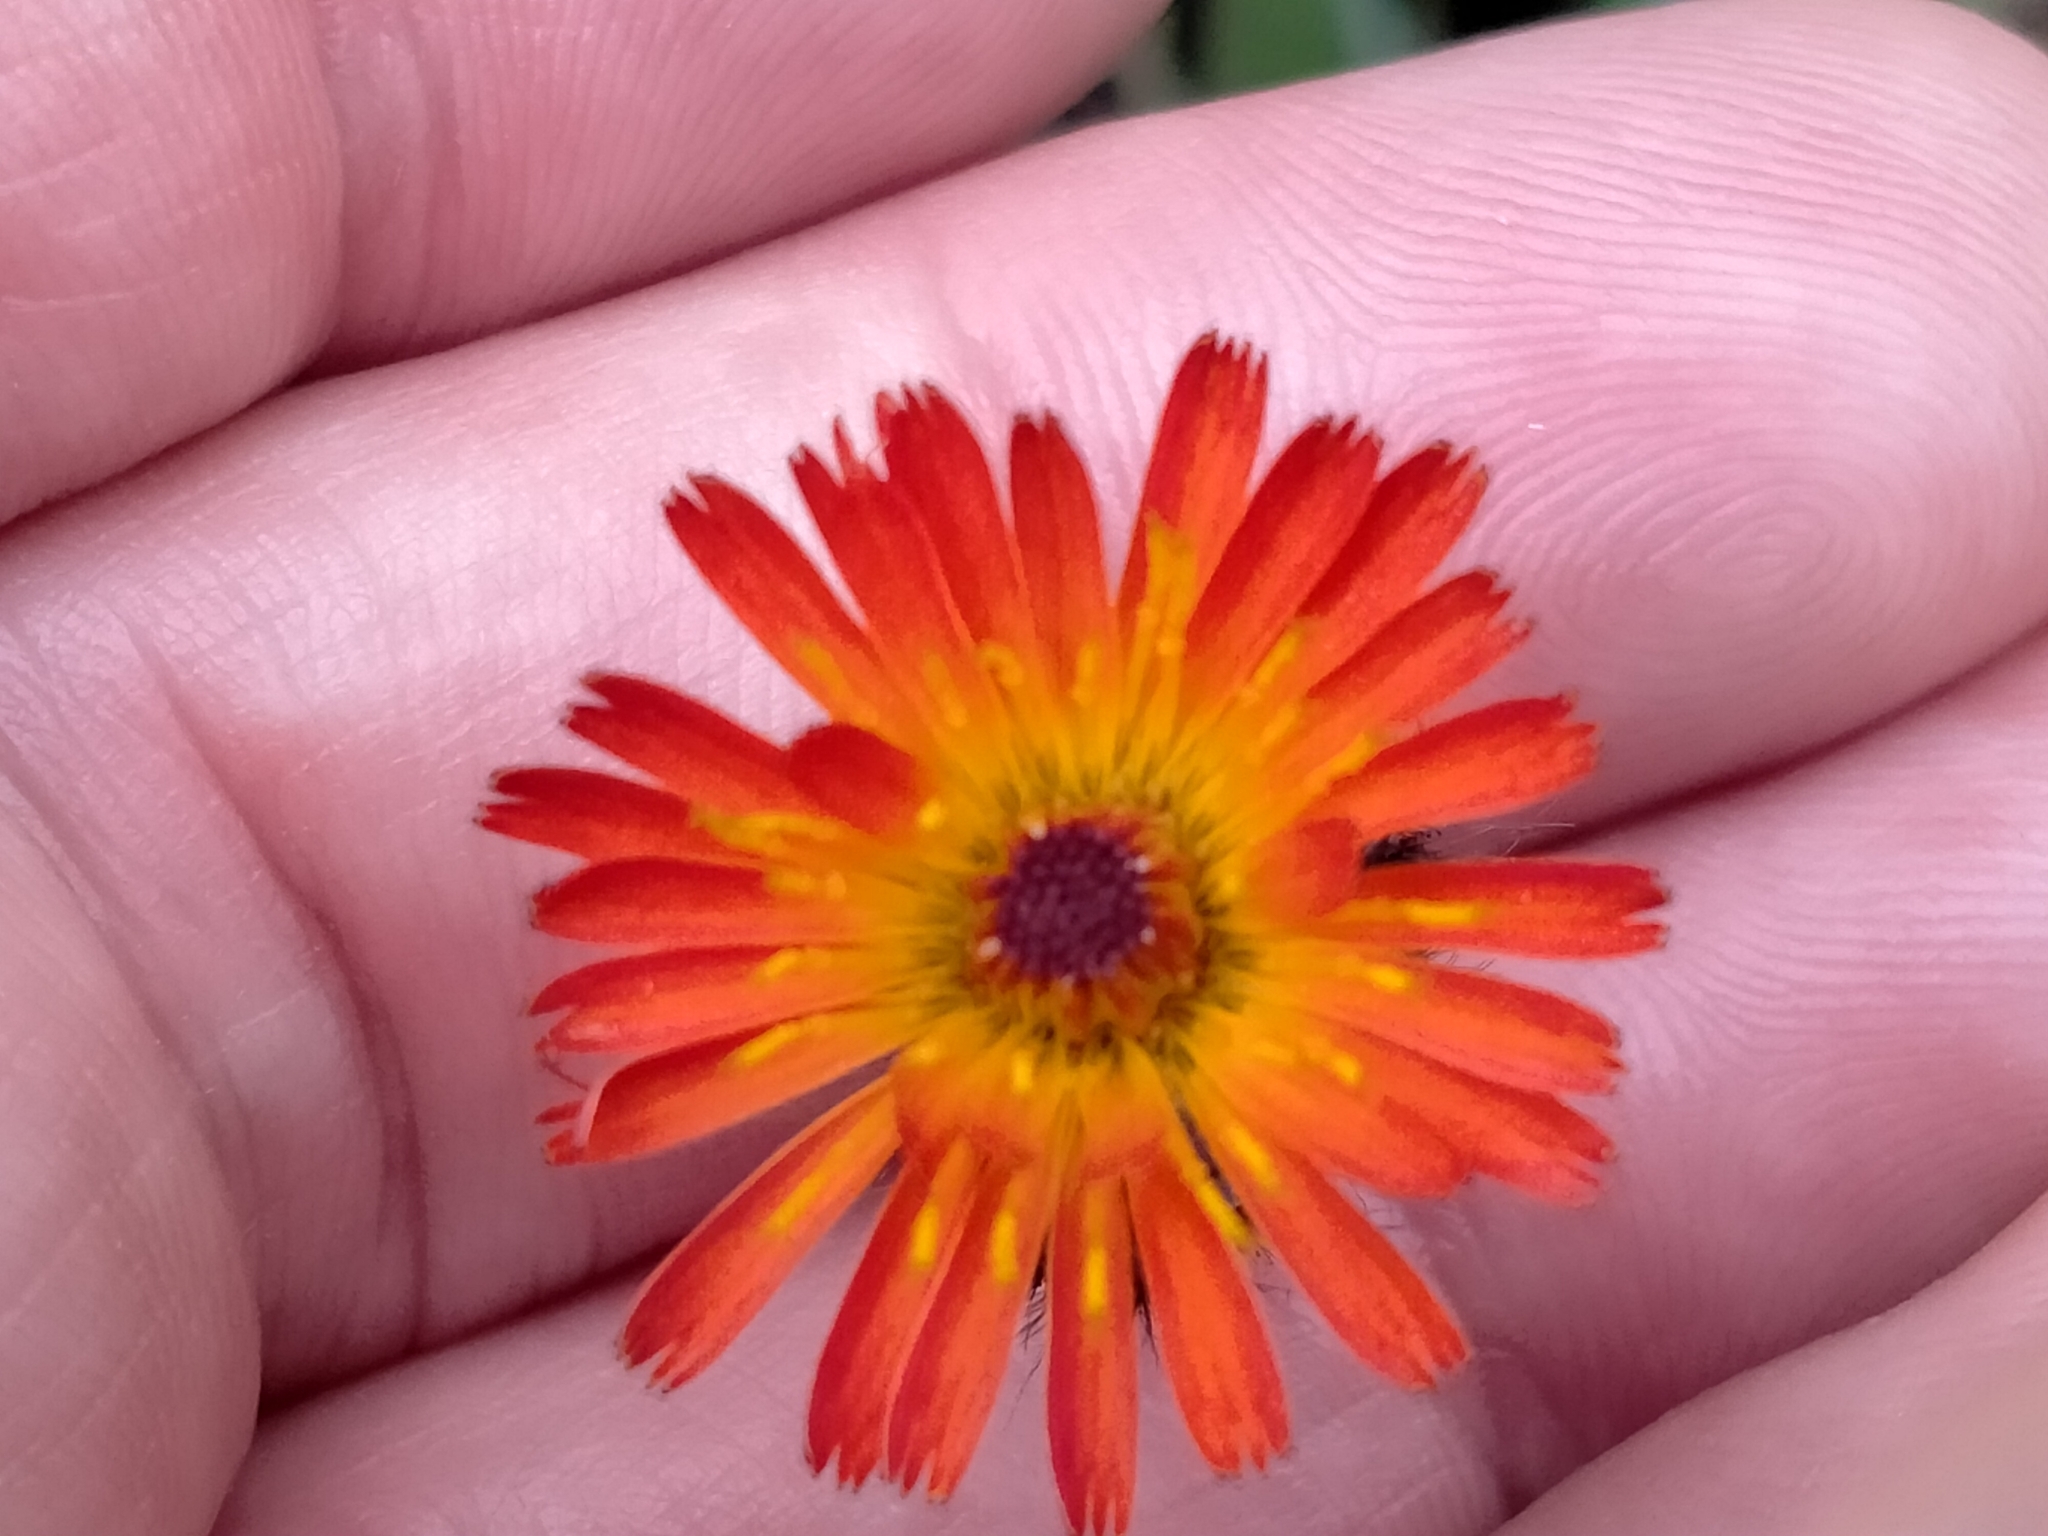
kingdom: Plantae
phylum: Tracheophyta
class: Magnoliopsida
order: Asterales
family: Asteraceae
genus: Pilosella
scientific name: Pilosella aurantiaca
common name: Fox-and-cubs
